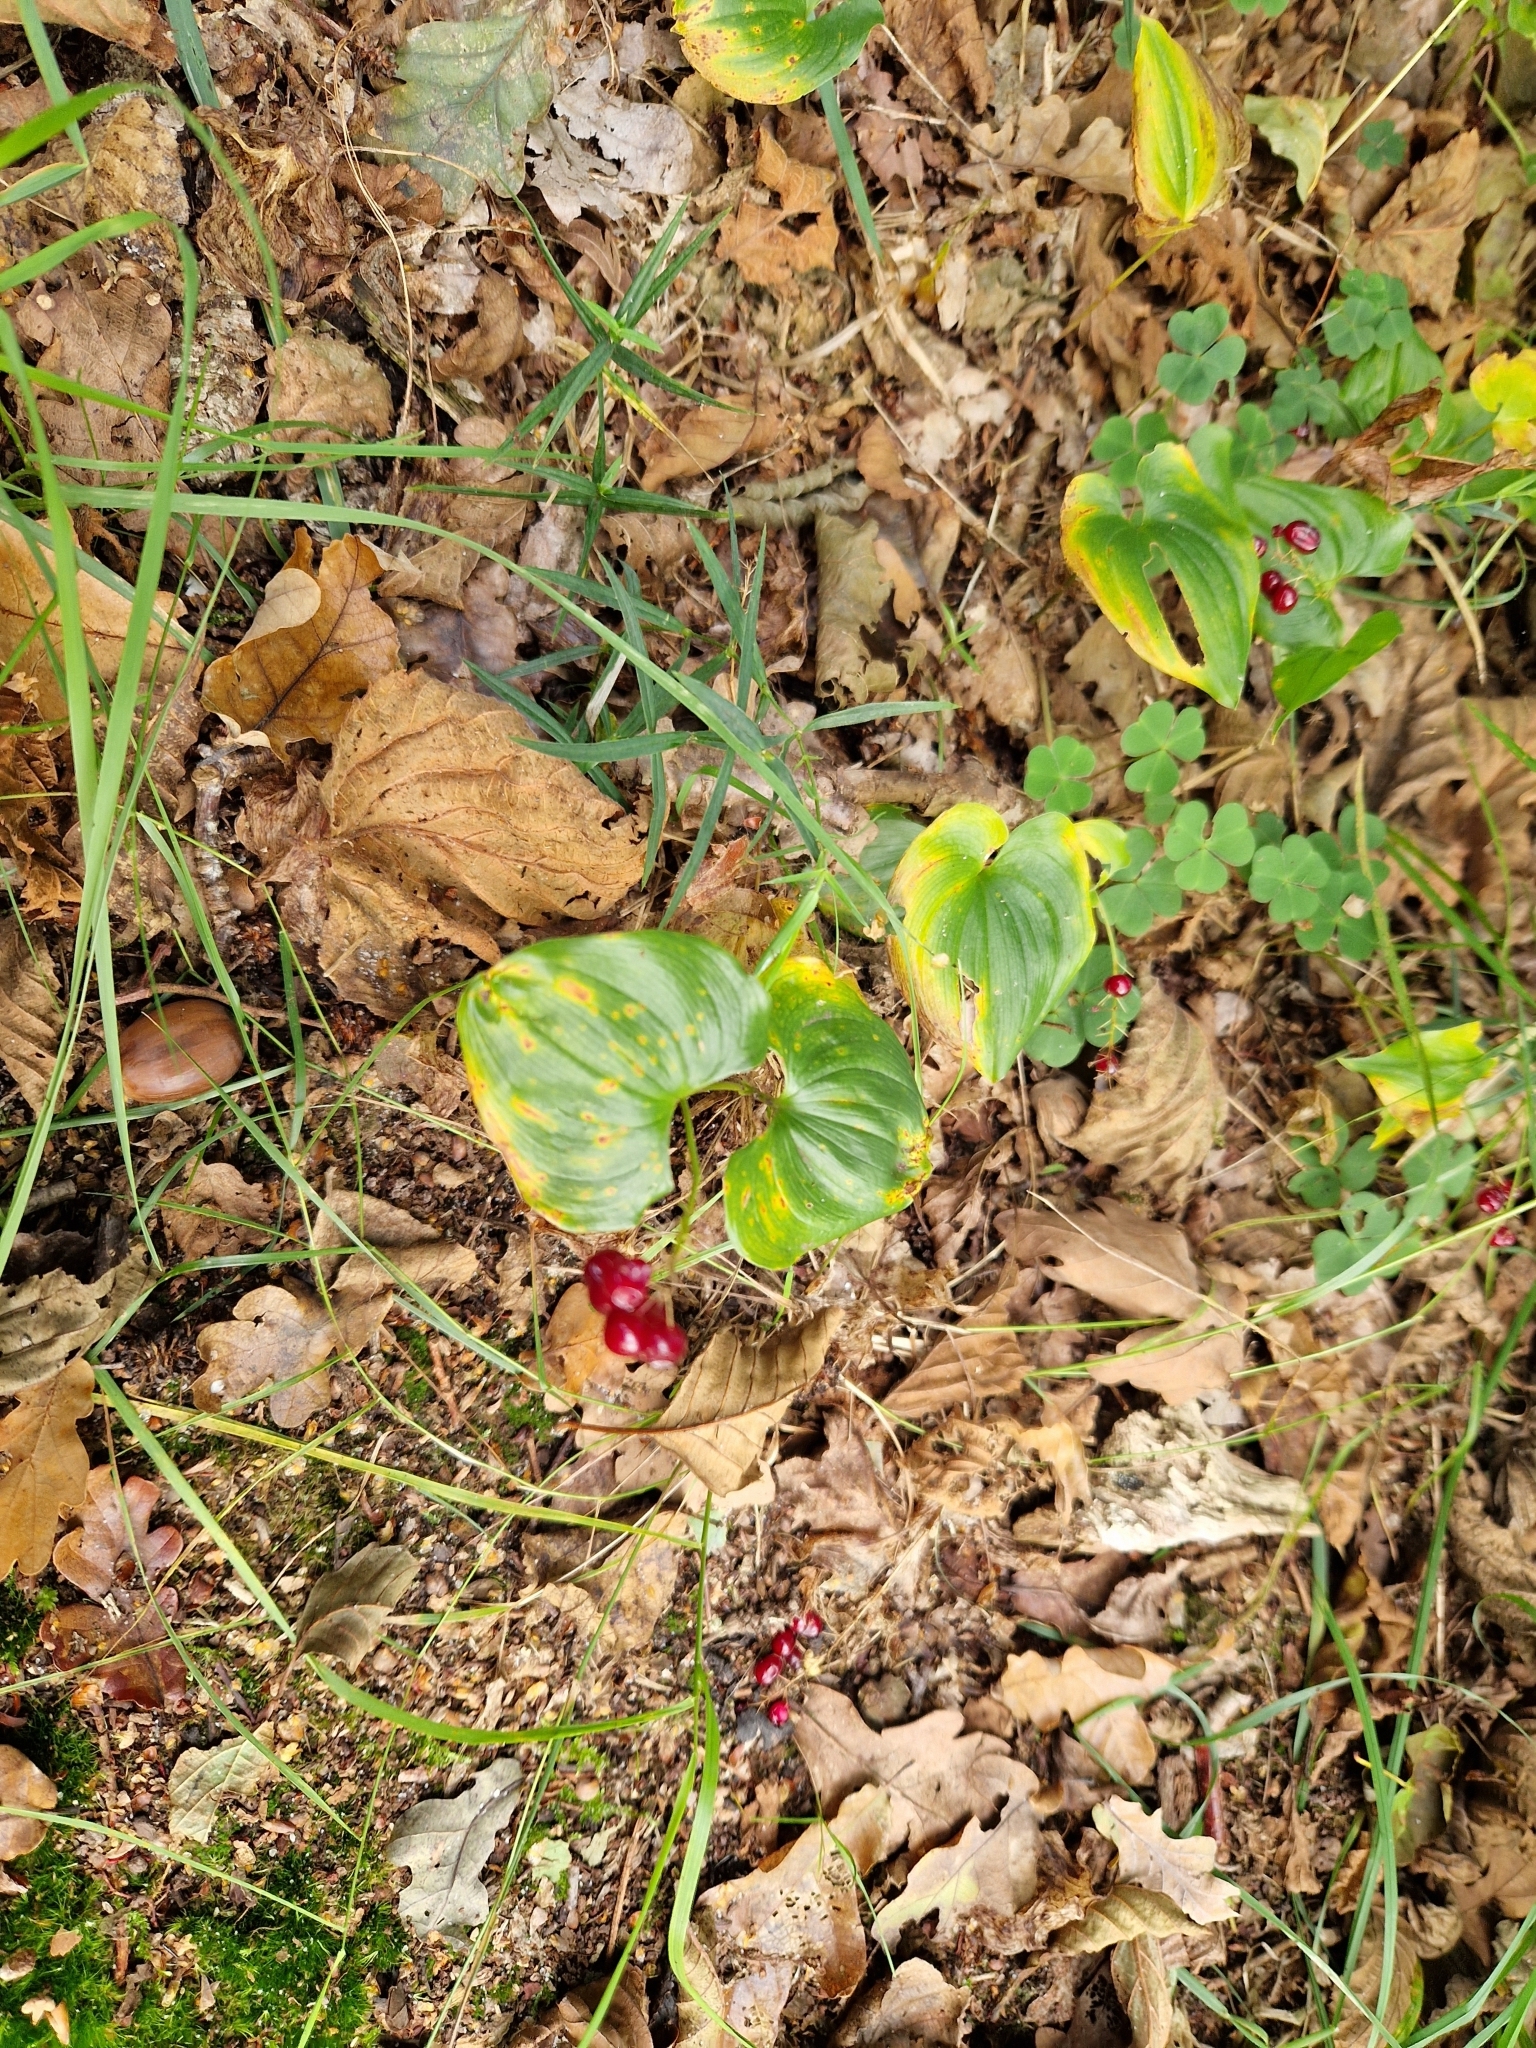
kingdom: Plantae
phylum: Tracheophyta
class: Liliopsida
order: Asparagales
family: Asparagaceae
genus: Maianthemum
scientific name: Maianthemum bifolium
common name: May lily
